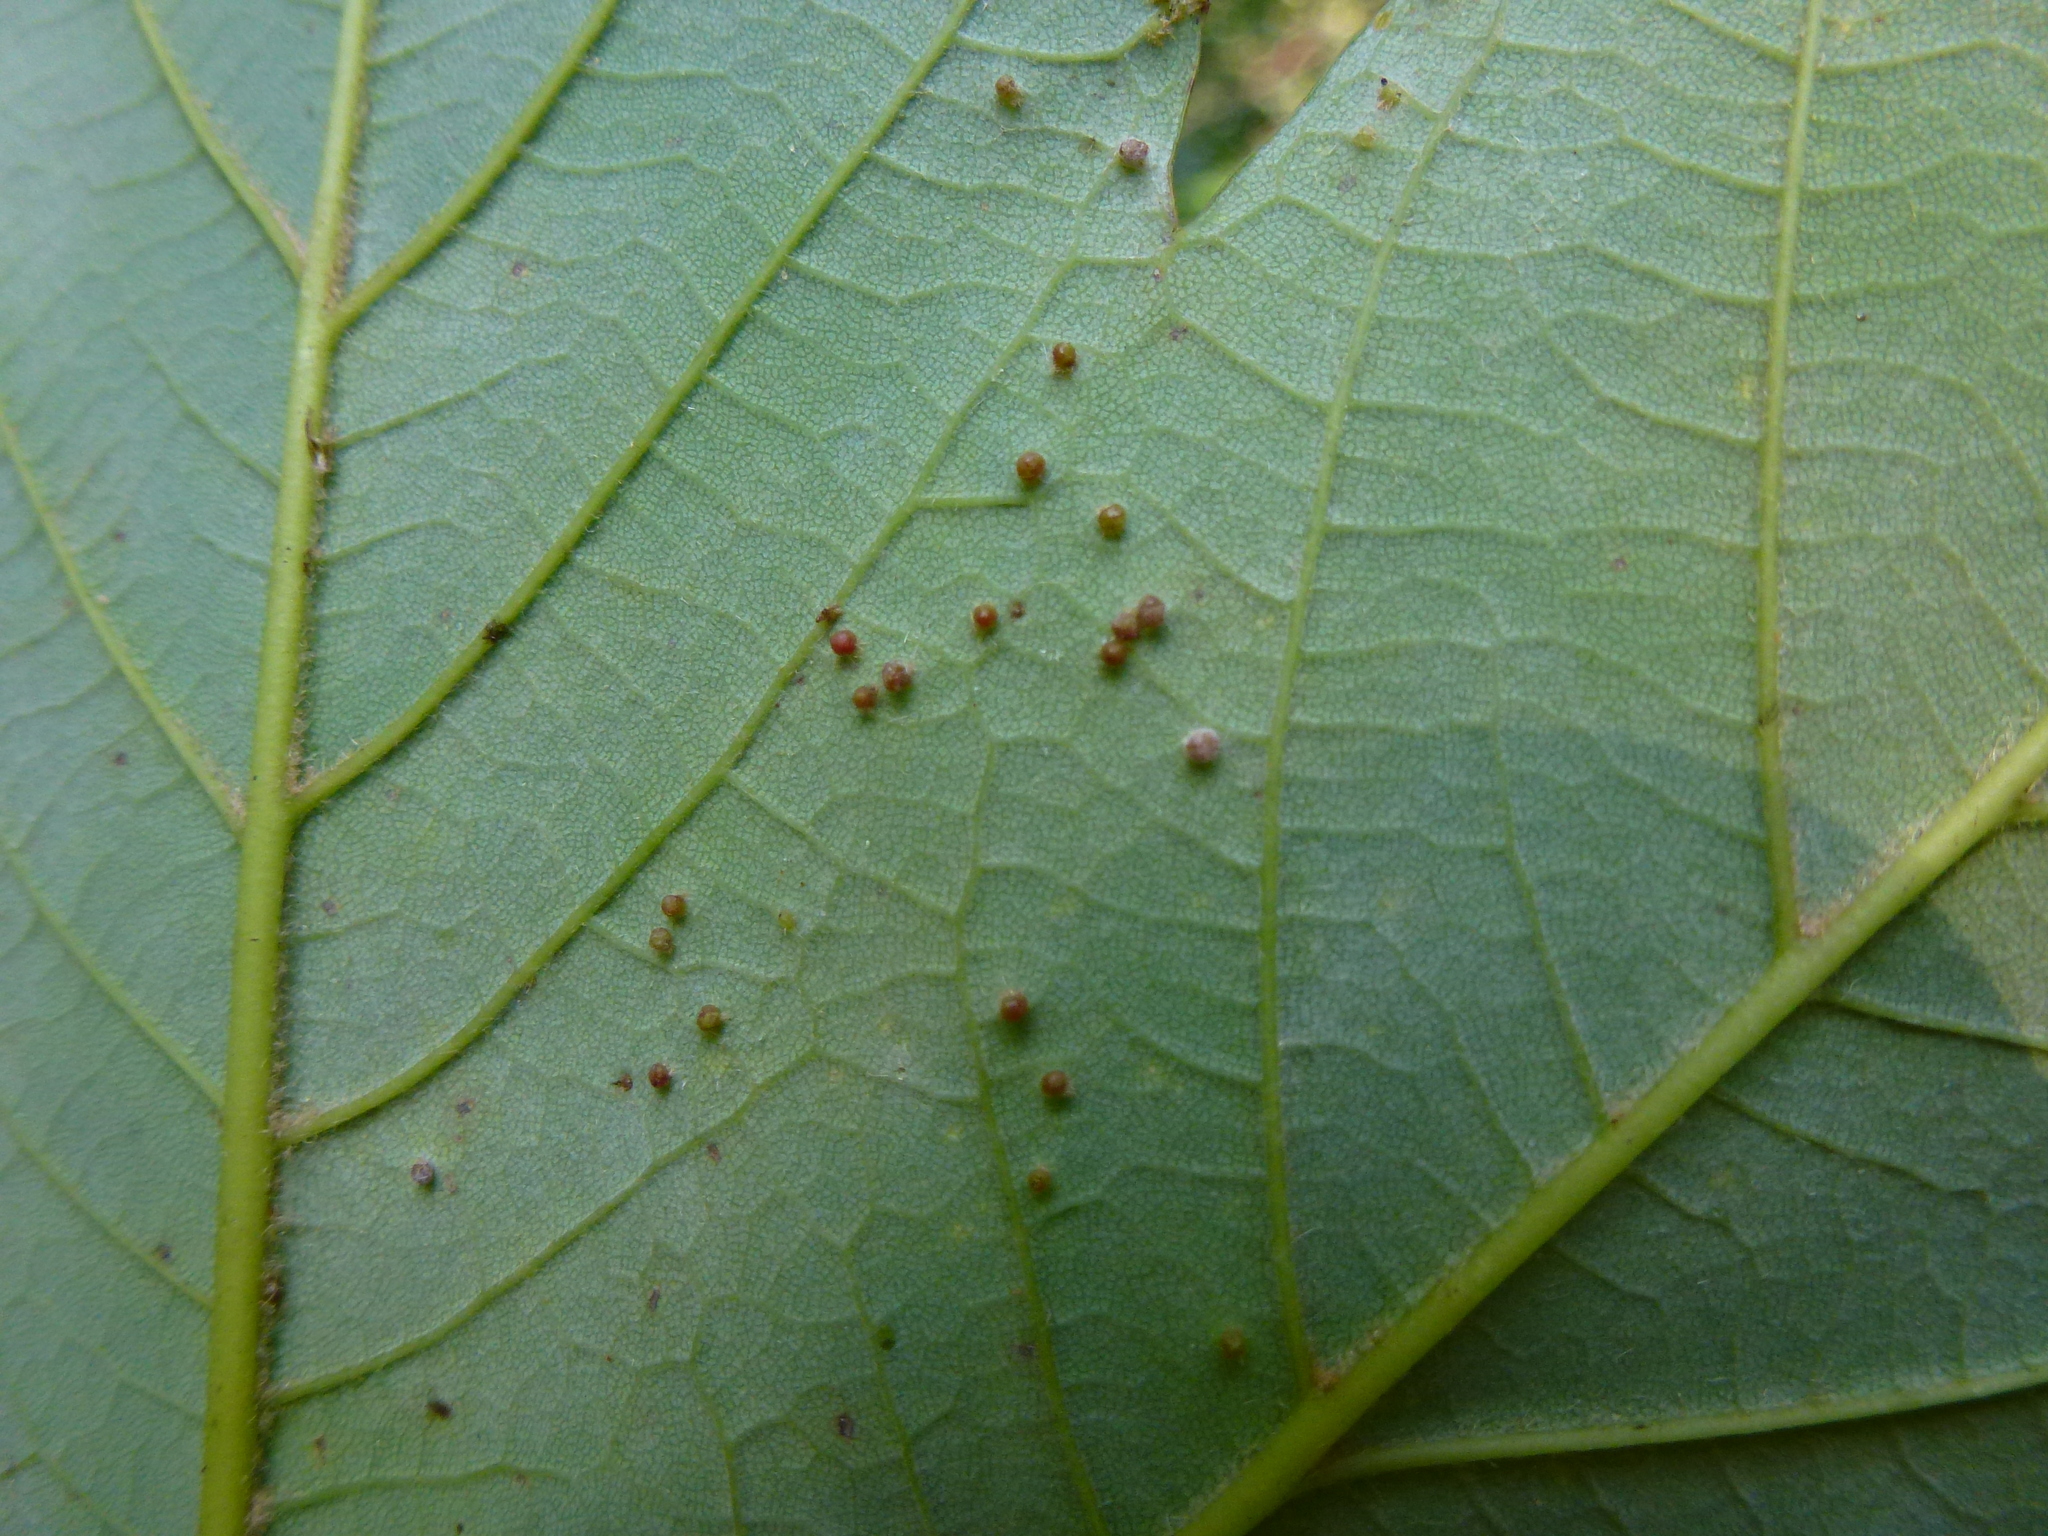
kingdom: Animalia
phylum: Arthropoda
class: Arachnida
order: Trombidiformes
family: Eriophyidae
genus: Aceria
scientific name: Aceria cephaloneus
